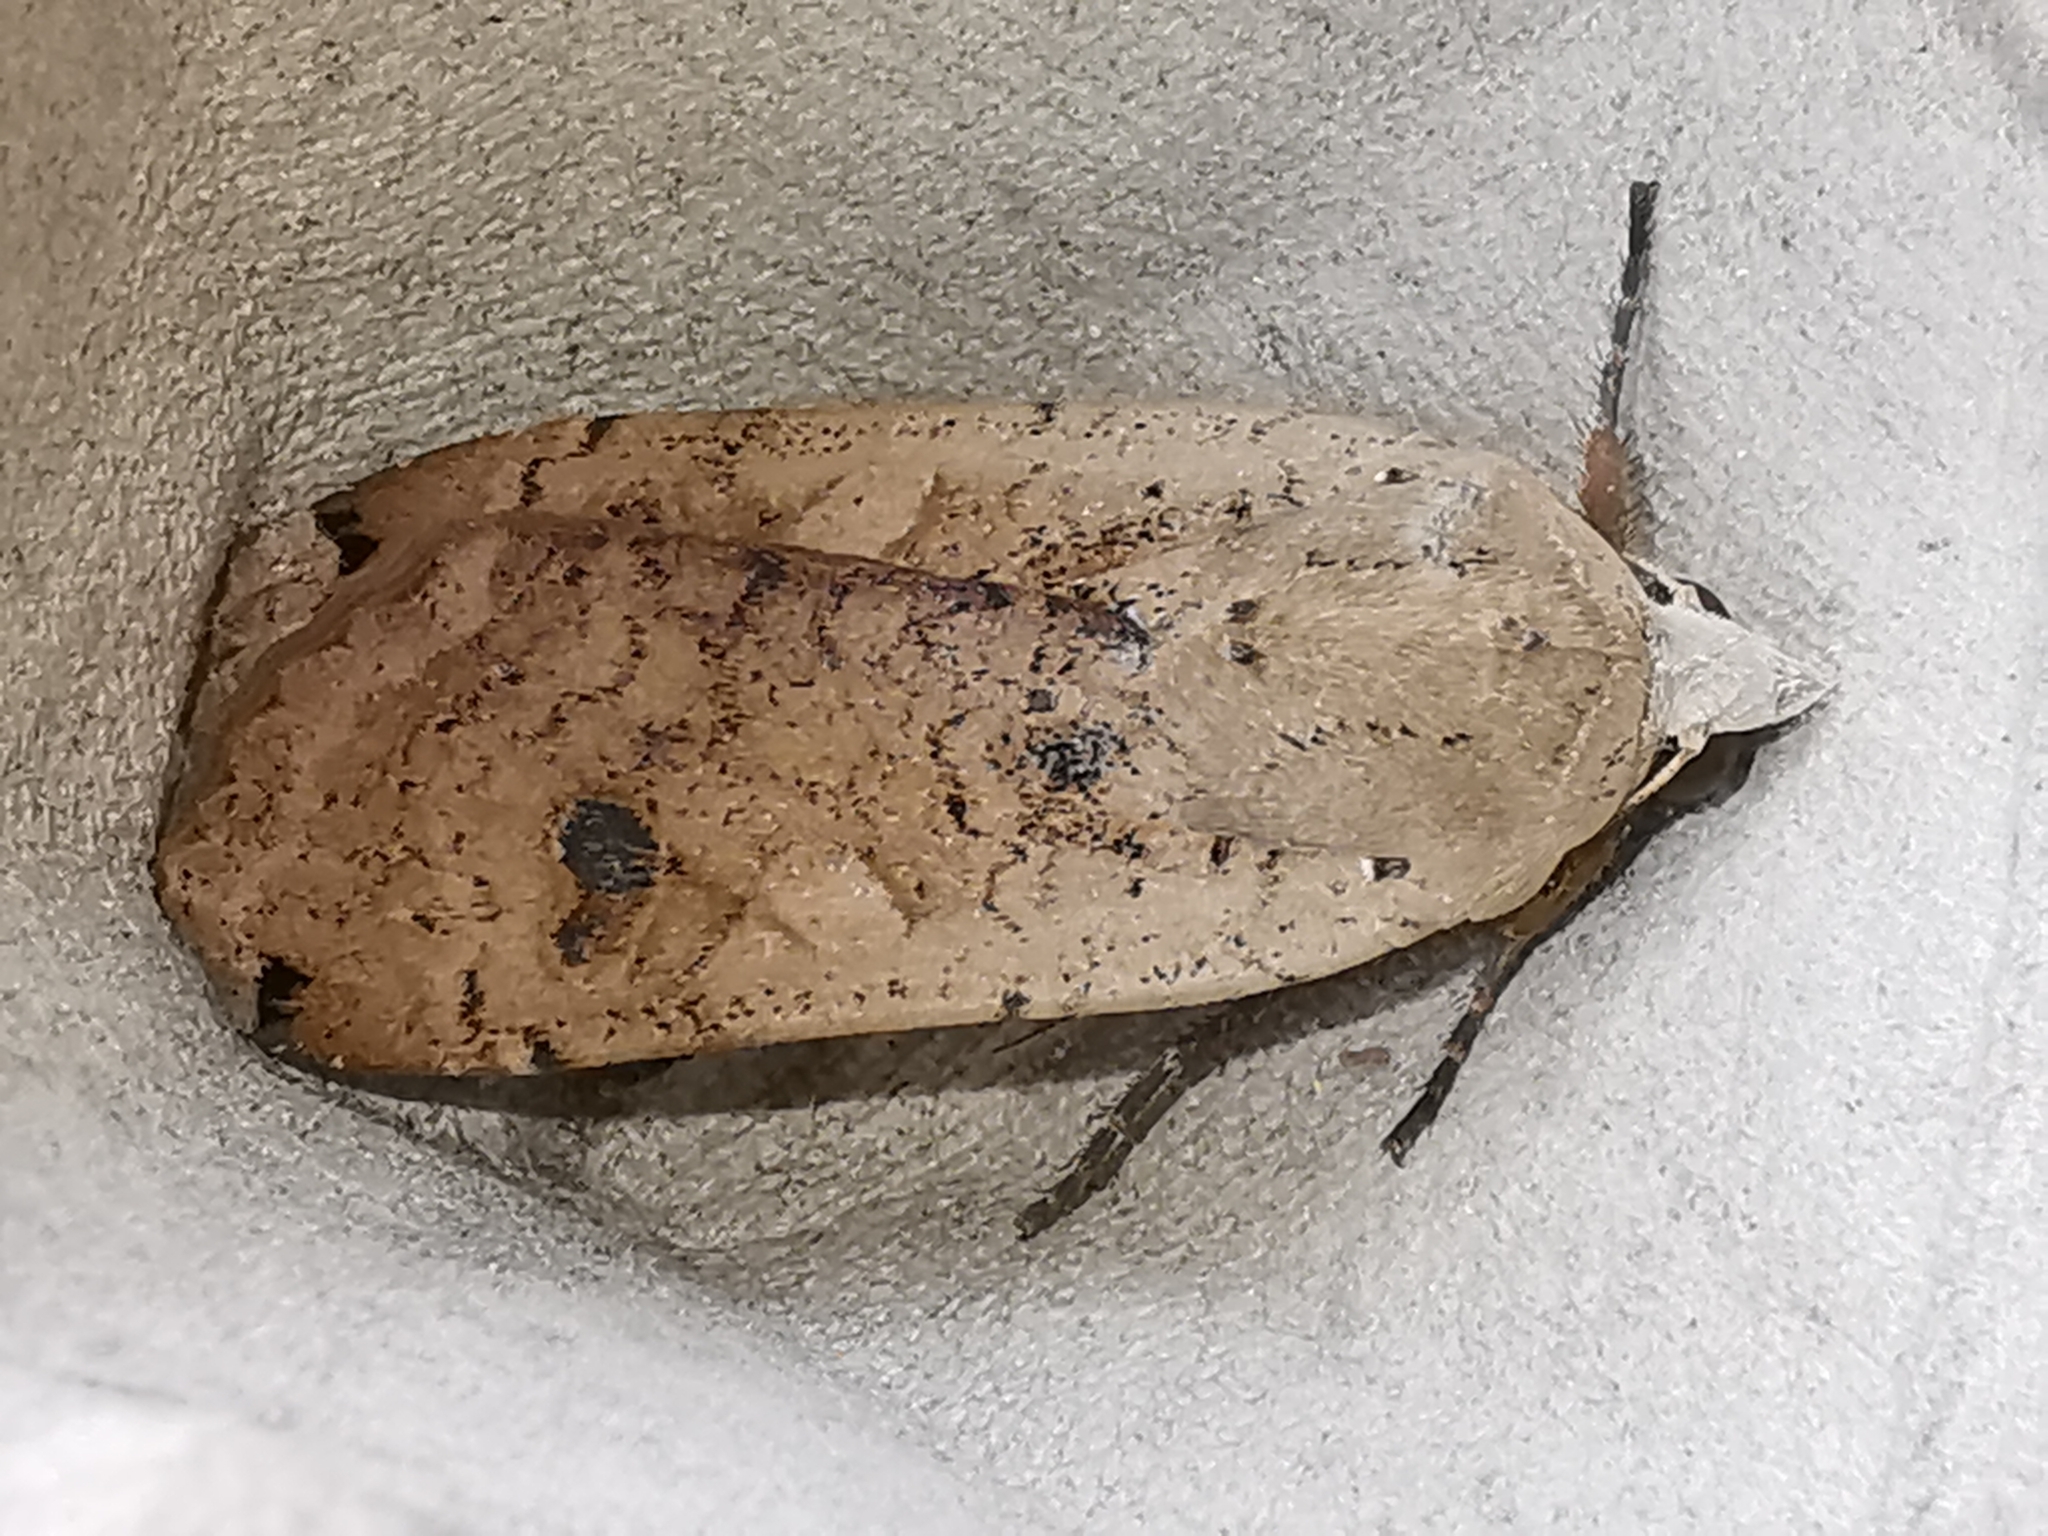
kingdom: Animalia
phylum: Arthropoda
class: Insecta
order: Lepidoptera
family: Noctuidae
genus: Noctua
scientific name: Noctua pronuba
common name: Large yellow underwing
